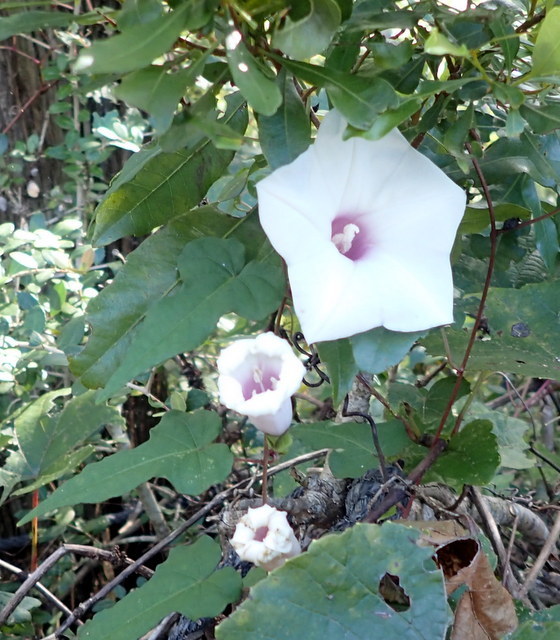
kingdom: Plantae
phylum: Tracheophyta
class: Magnoliopsida
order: Solanales
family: Convolvulaceae
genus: Ipomoea
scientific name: Ipomoea pandurata
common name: Man-of-the-earth
